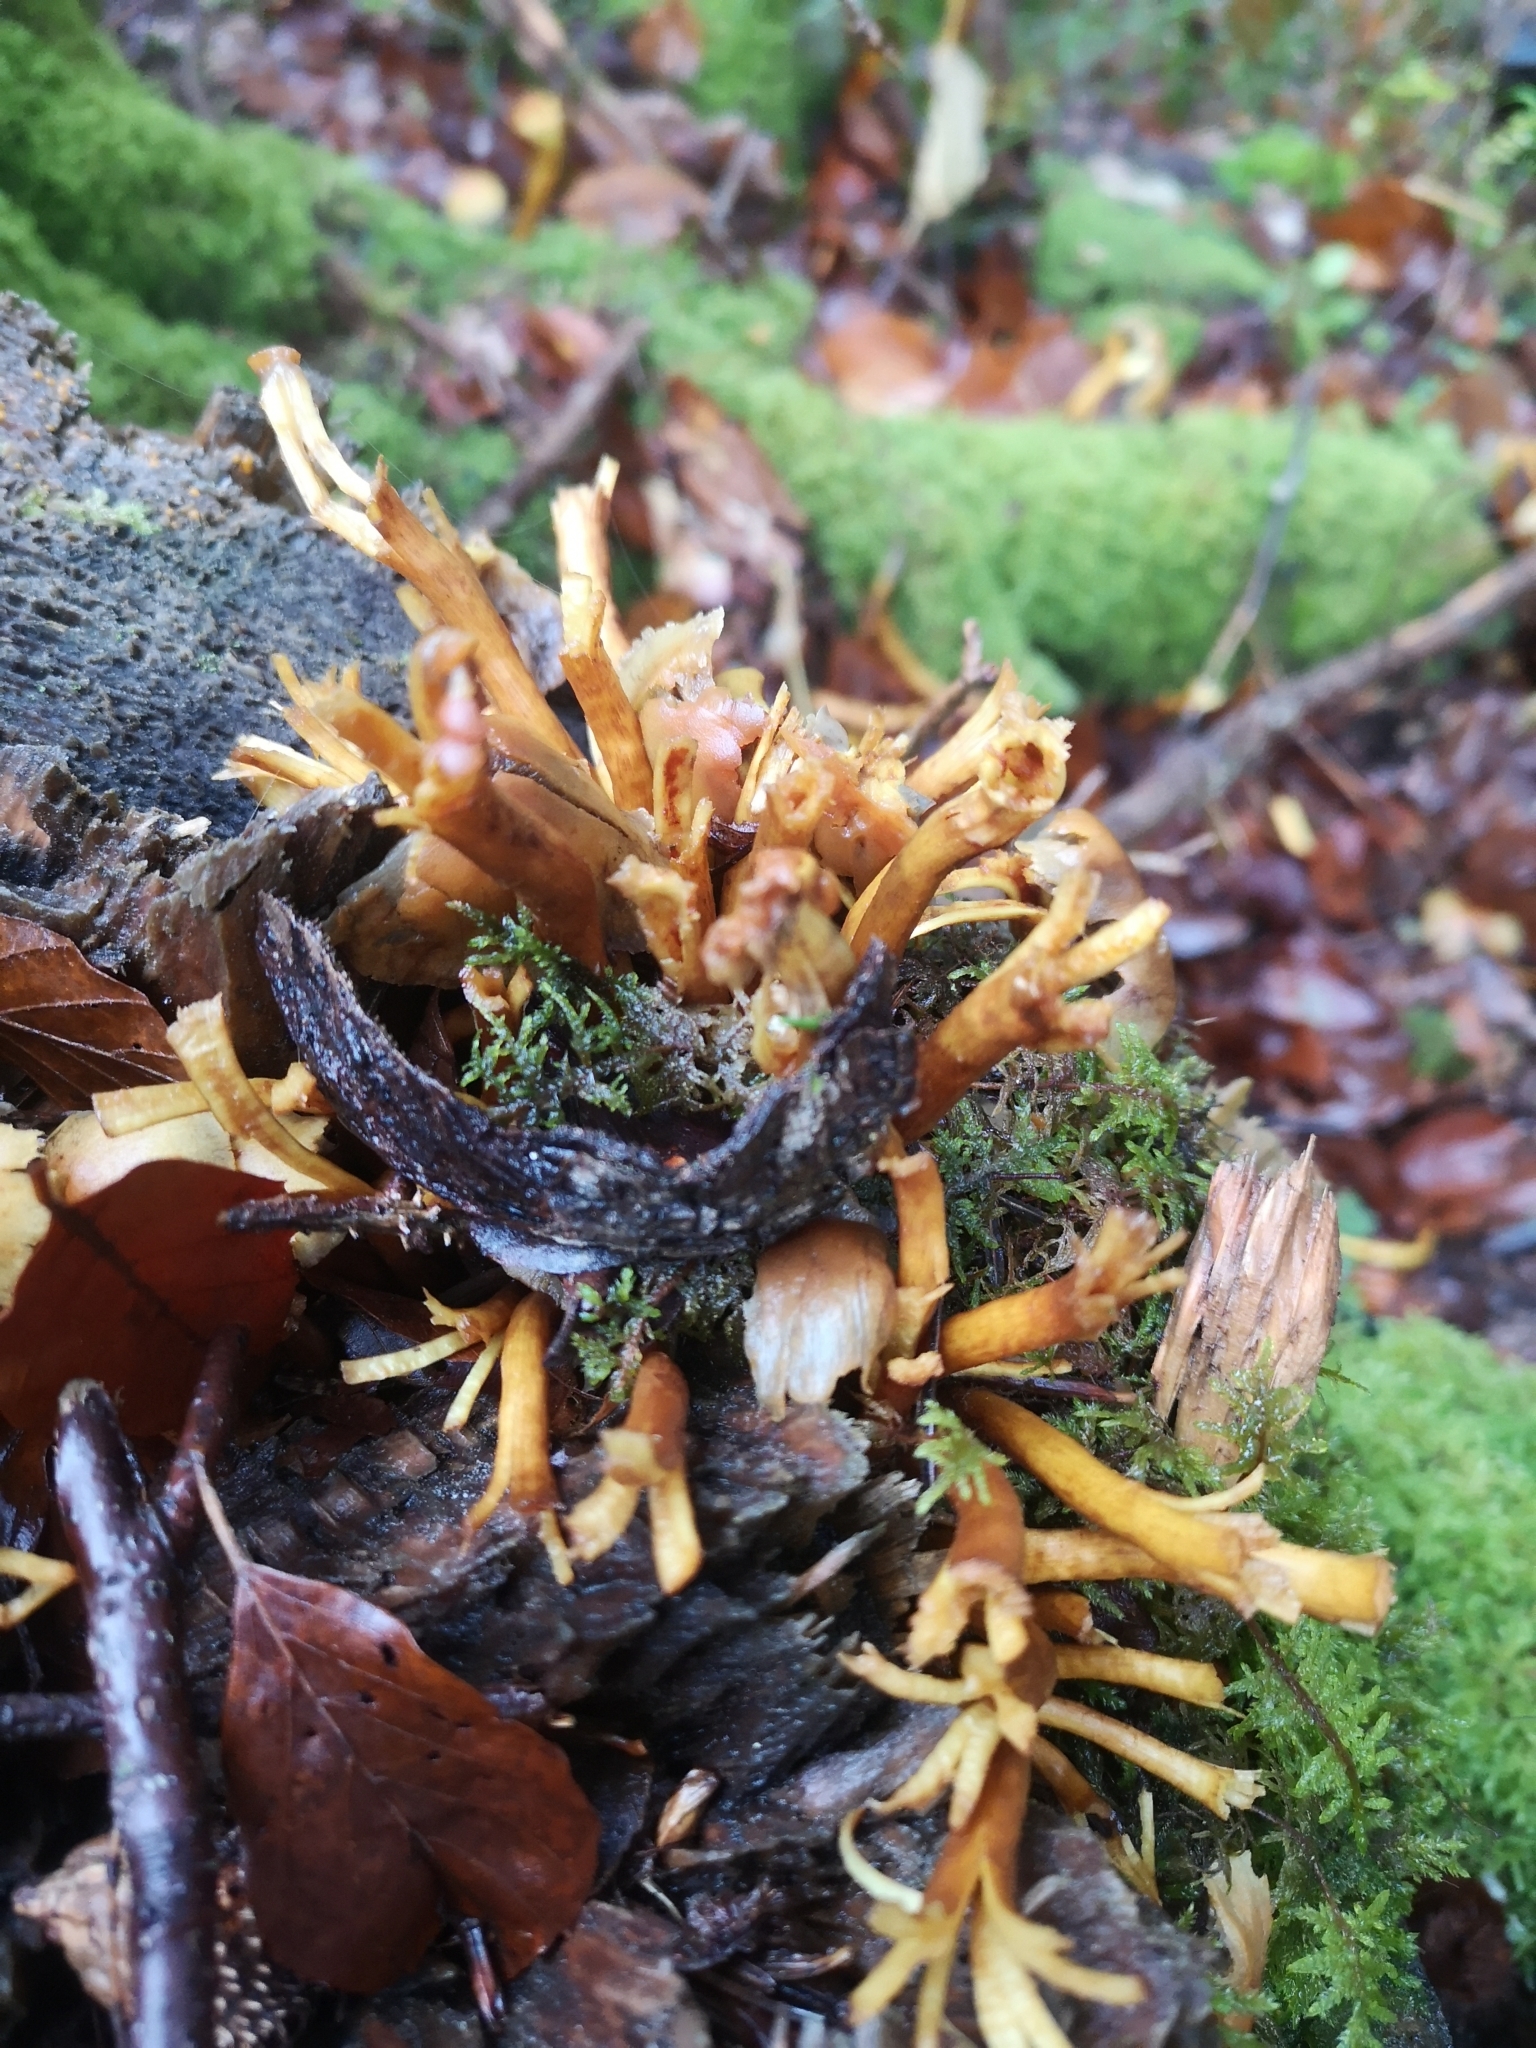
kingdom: Fungi
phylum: Basidiomycota
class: Agaricomycetes
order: Agaricales
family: Strophariaceae
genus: Hypholoma
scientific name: Hypholoma fasciculare
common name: Sulphur tuft
